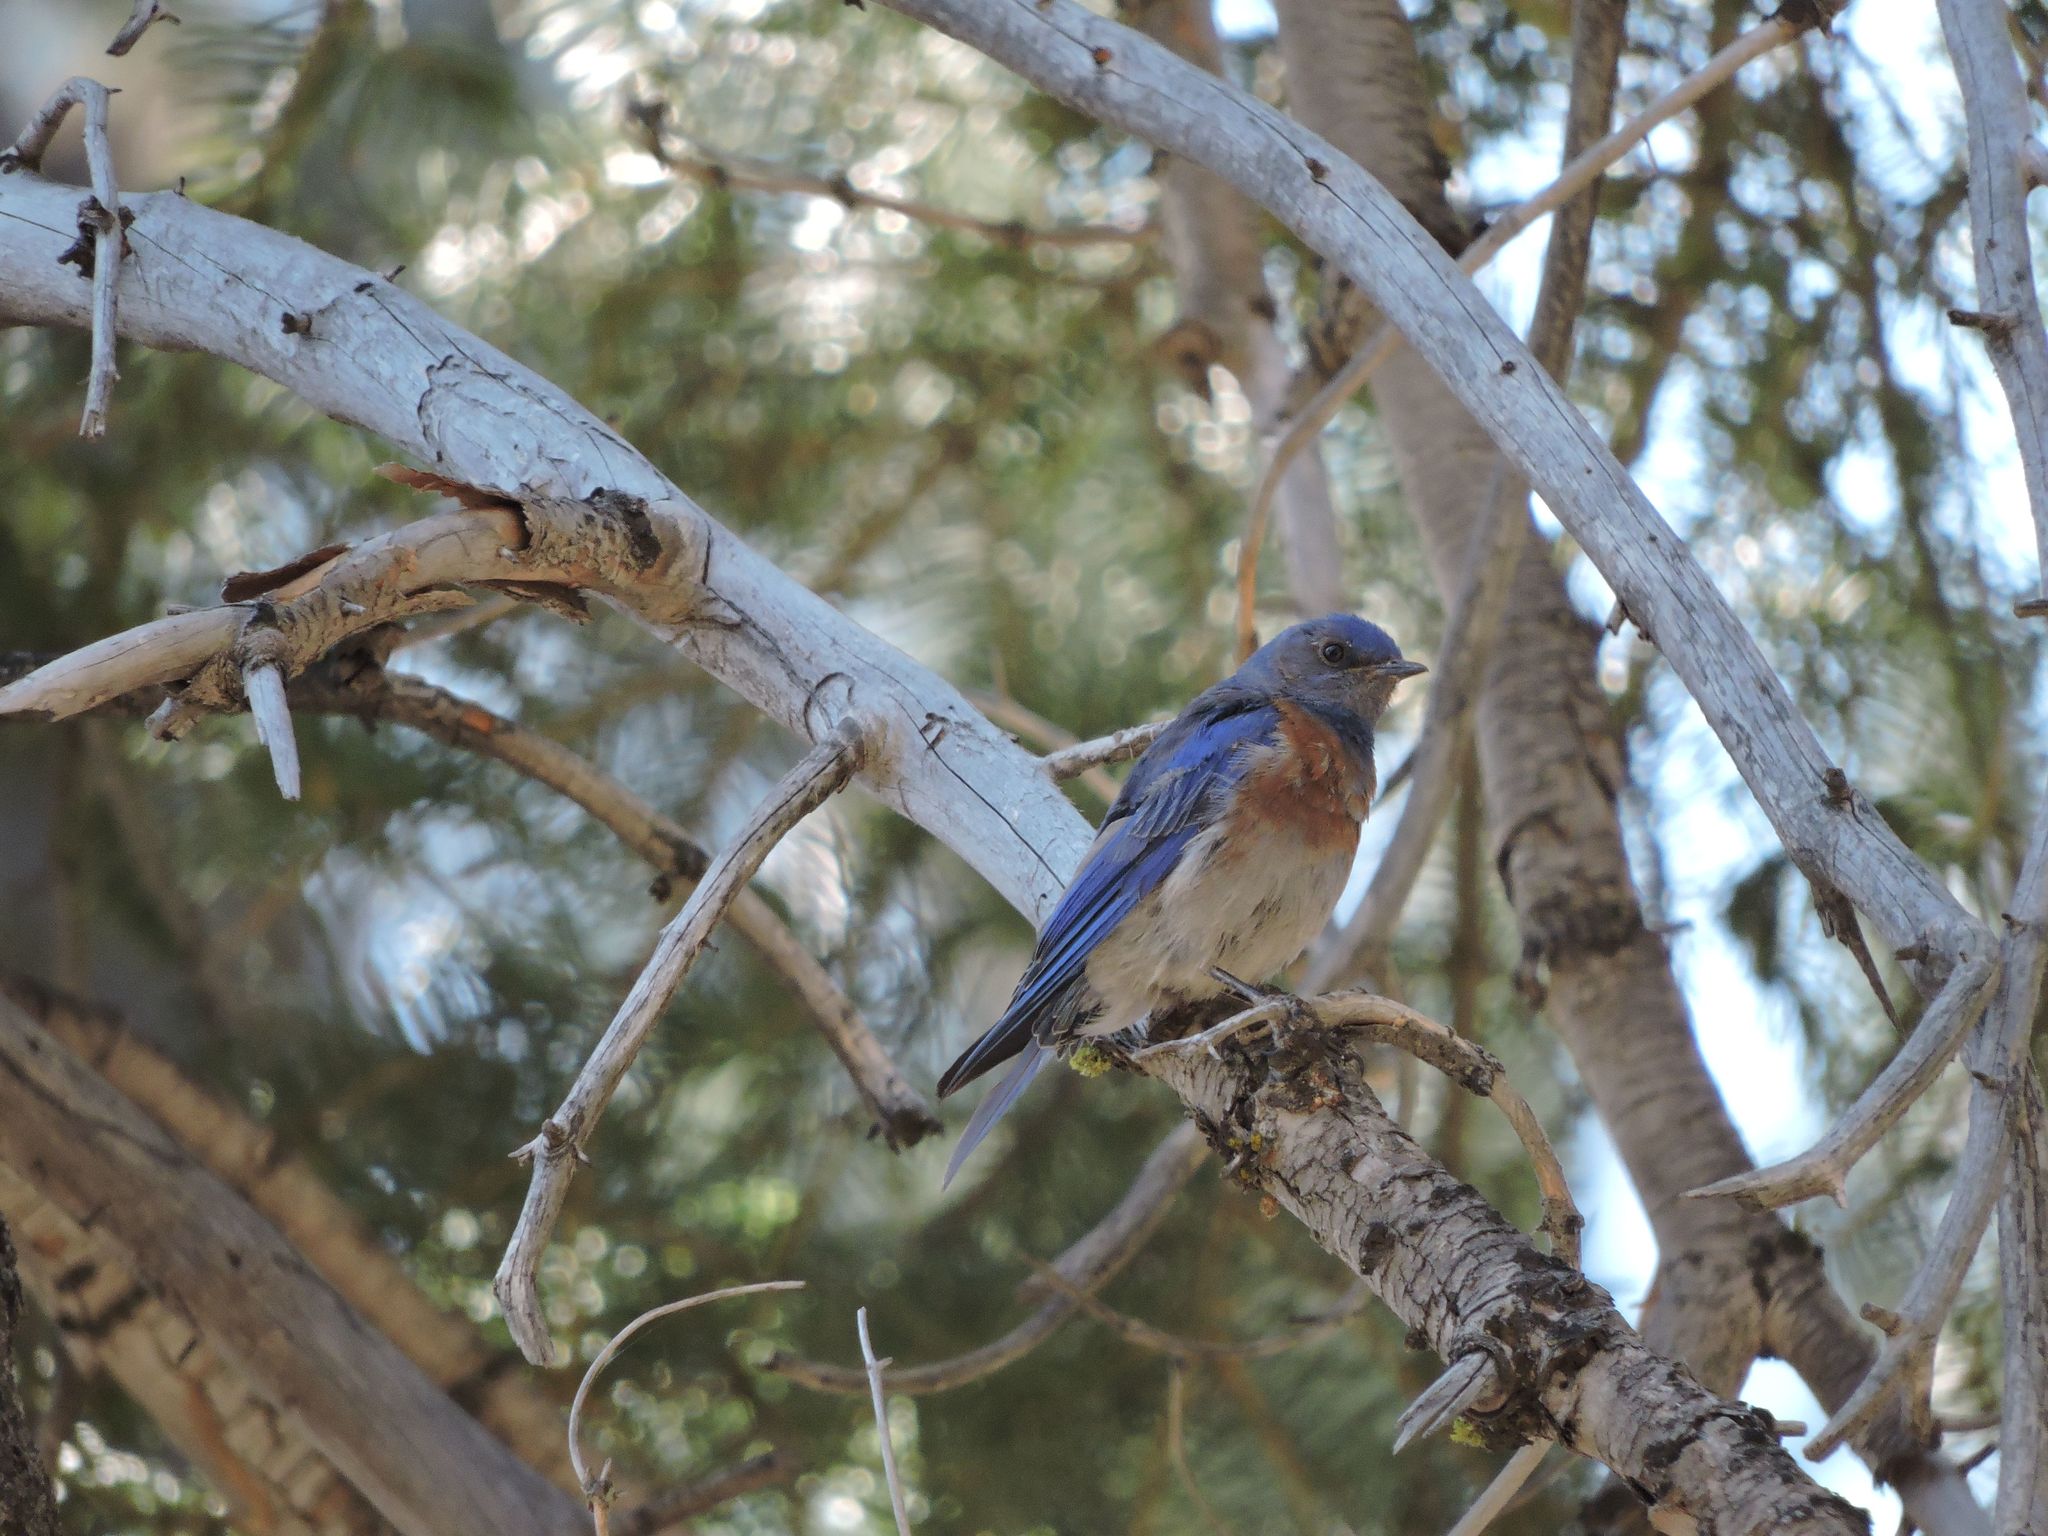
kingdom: Animalia
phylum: Chordata
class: Aves
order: Passeriformes
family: Turdidae
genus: Sialia
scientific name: Sialia mexicana
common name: Western bluebird
